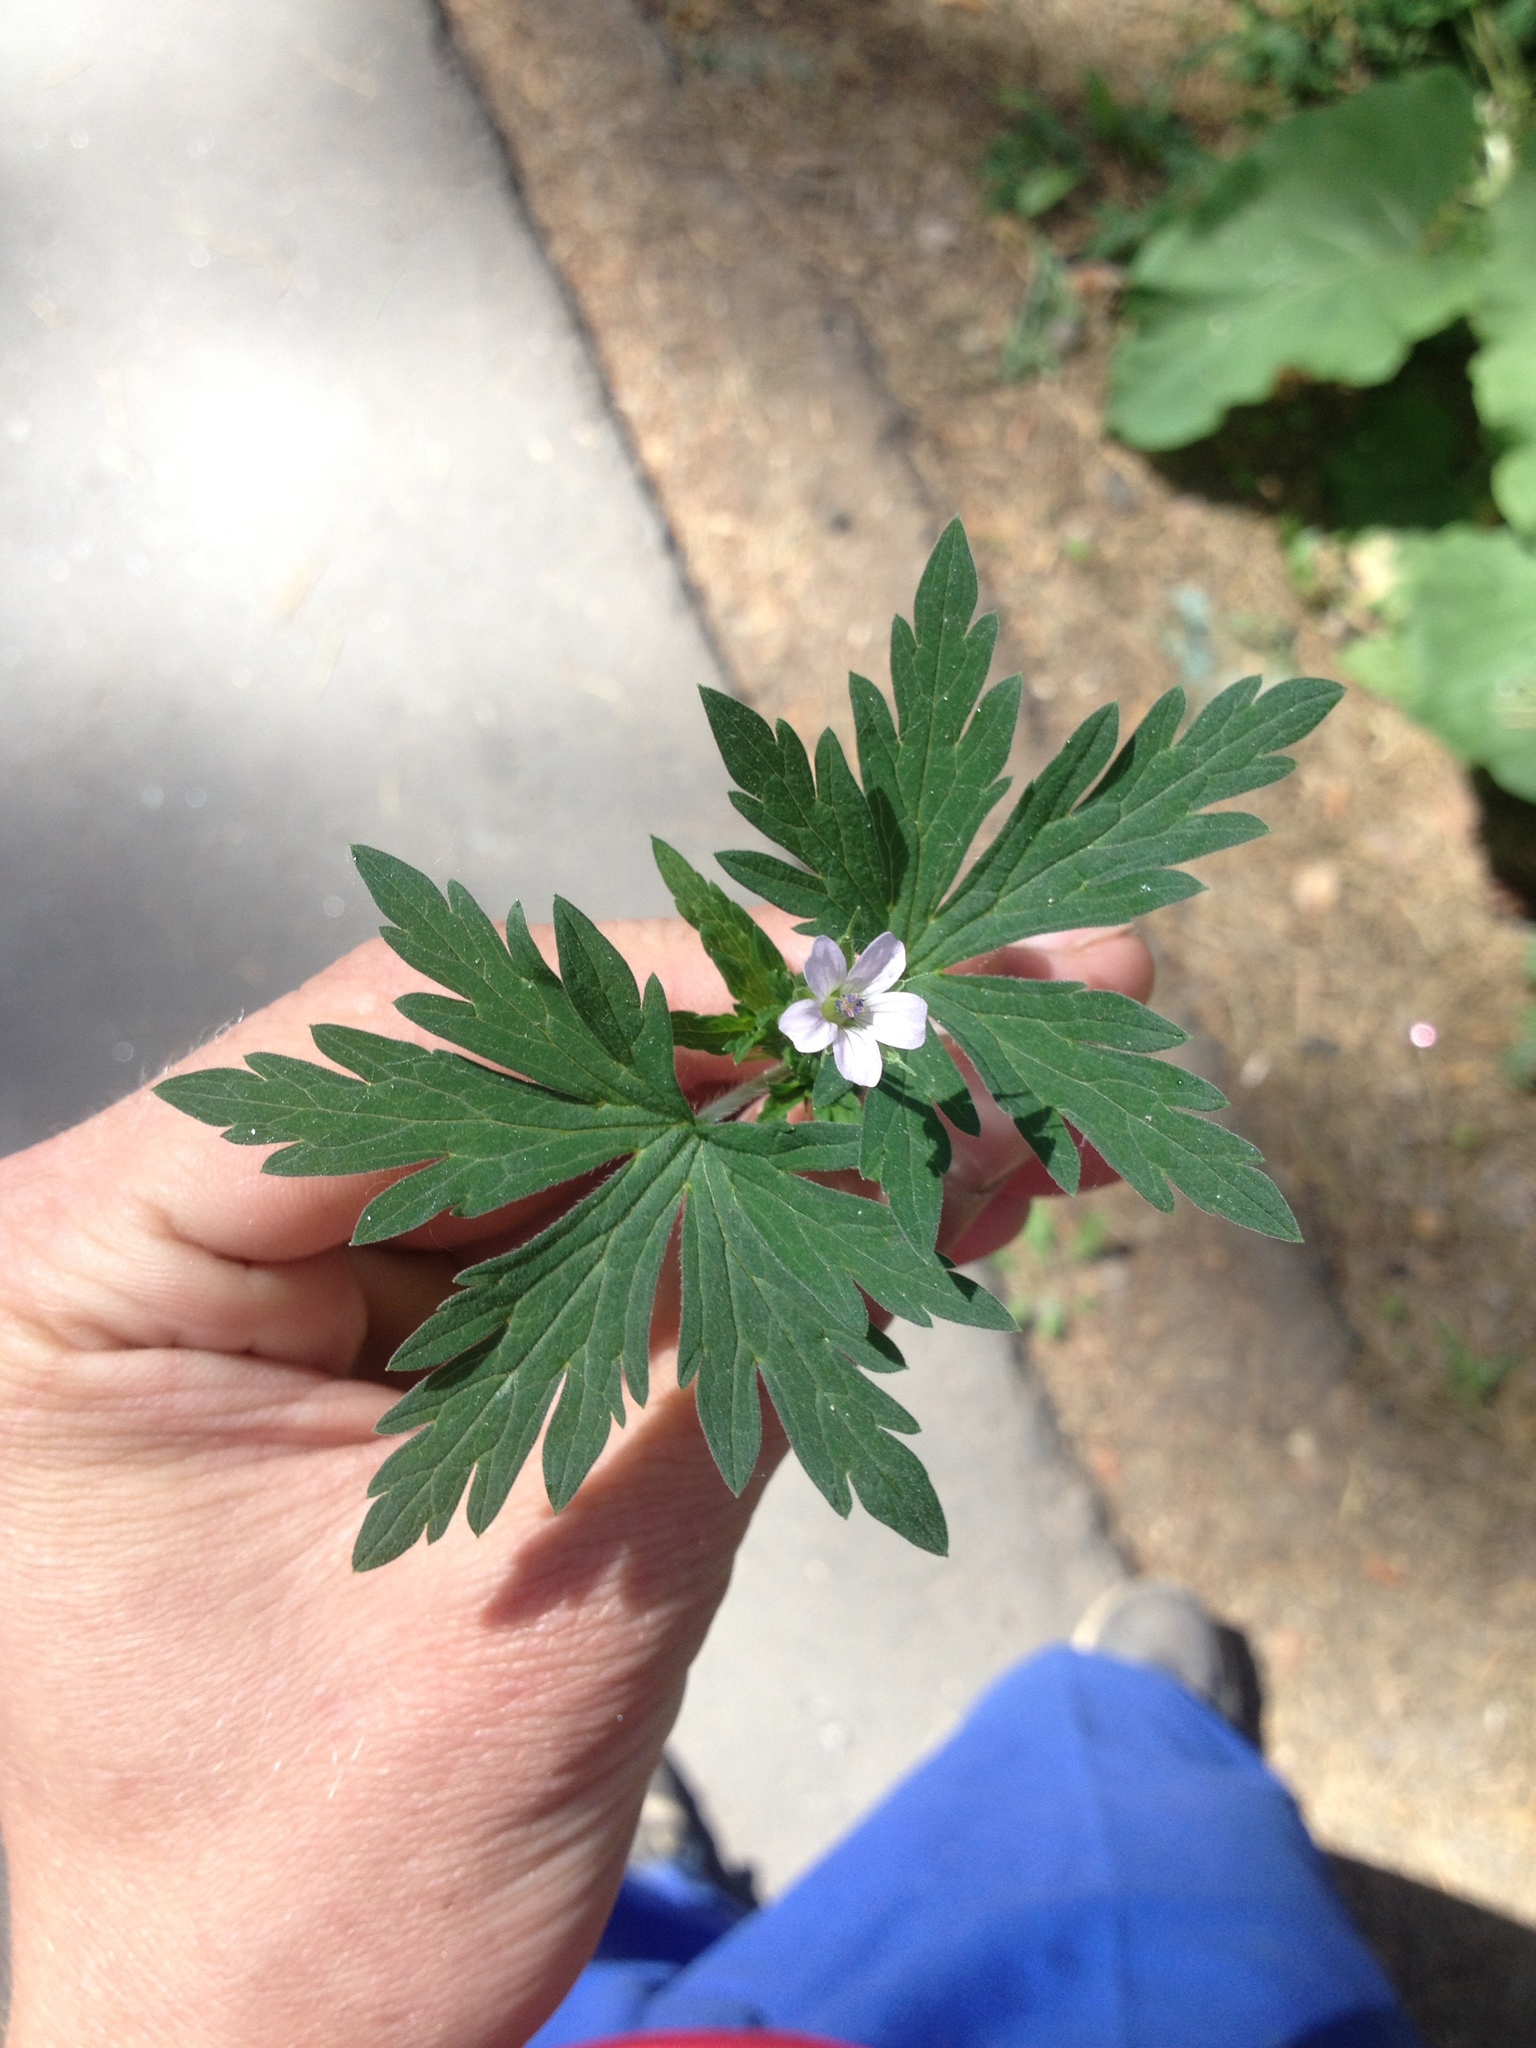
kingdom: Plantae
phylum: Tracheophyta
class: Magnoliopsida
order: Geraniales
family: Geraniaceae
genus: Geranium
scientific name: Geranium sibiricum
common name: Siberian crane's-bill
